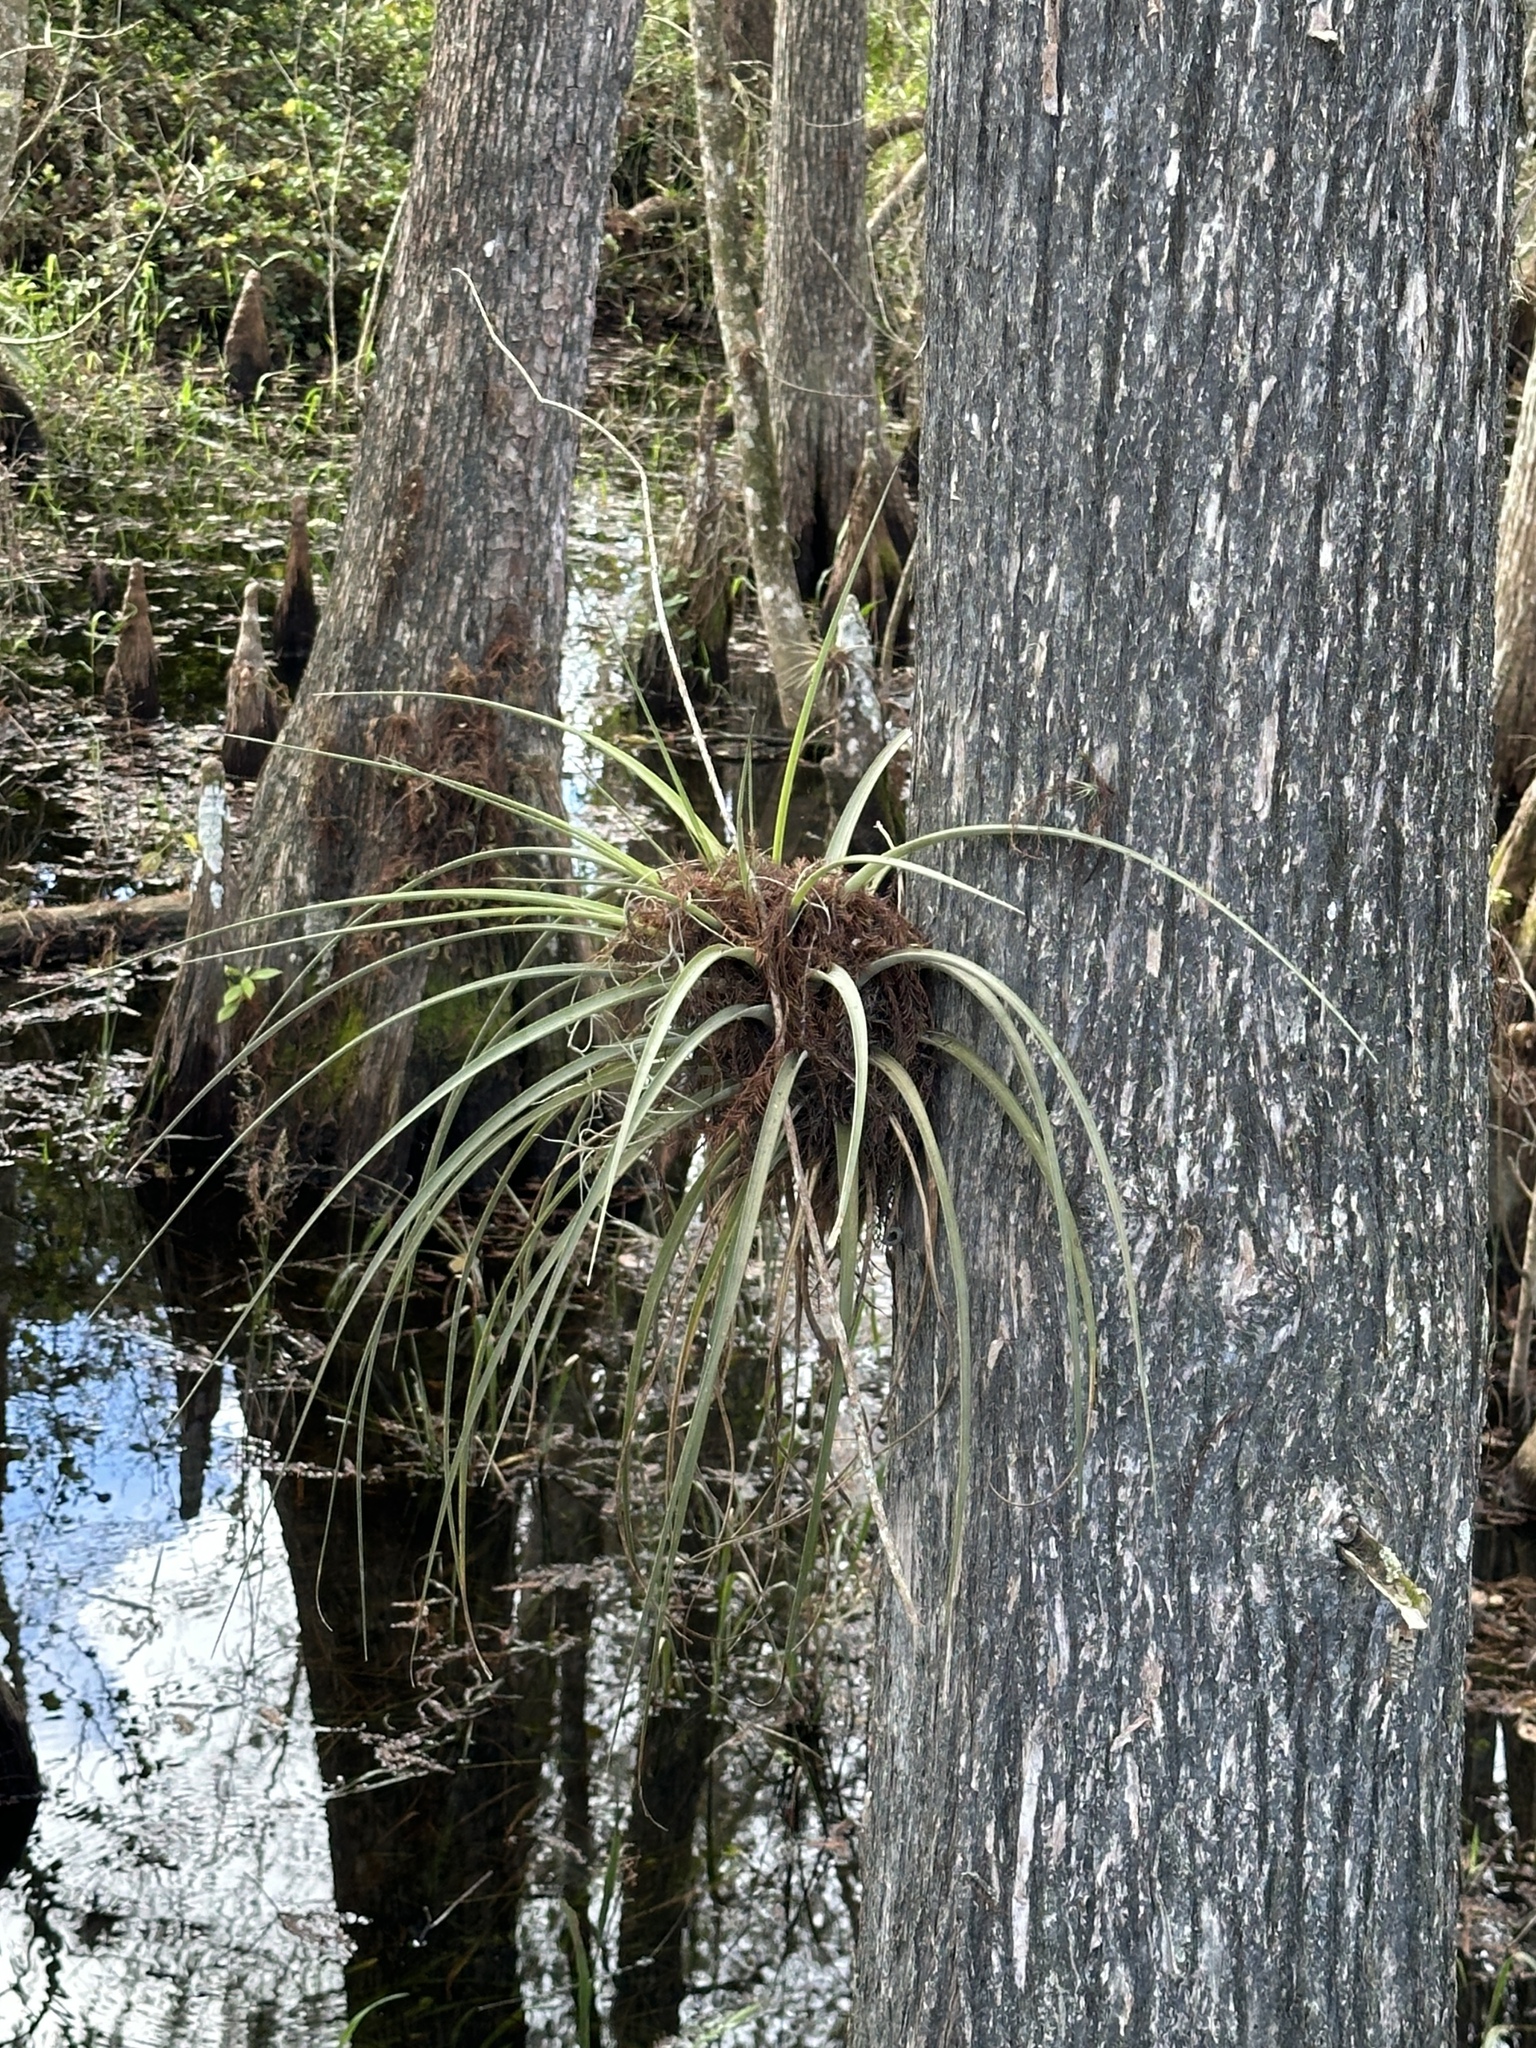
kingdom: Plantae
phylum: Tracheophyta
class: Liliopsida
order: Poales
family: Bromeliaceae
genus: Tillandsia
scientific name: Tillandsia fasciculata
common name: Giant airplant
